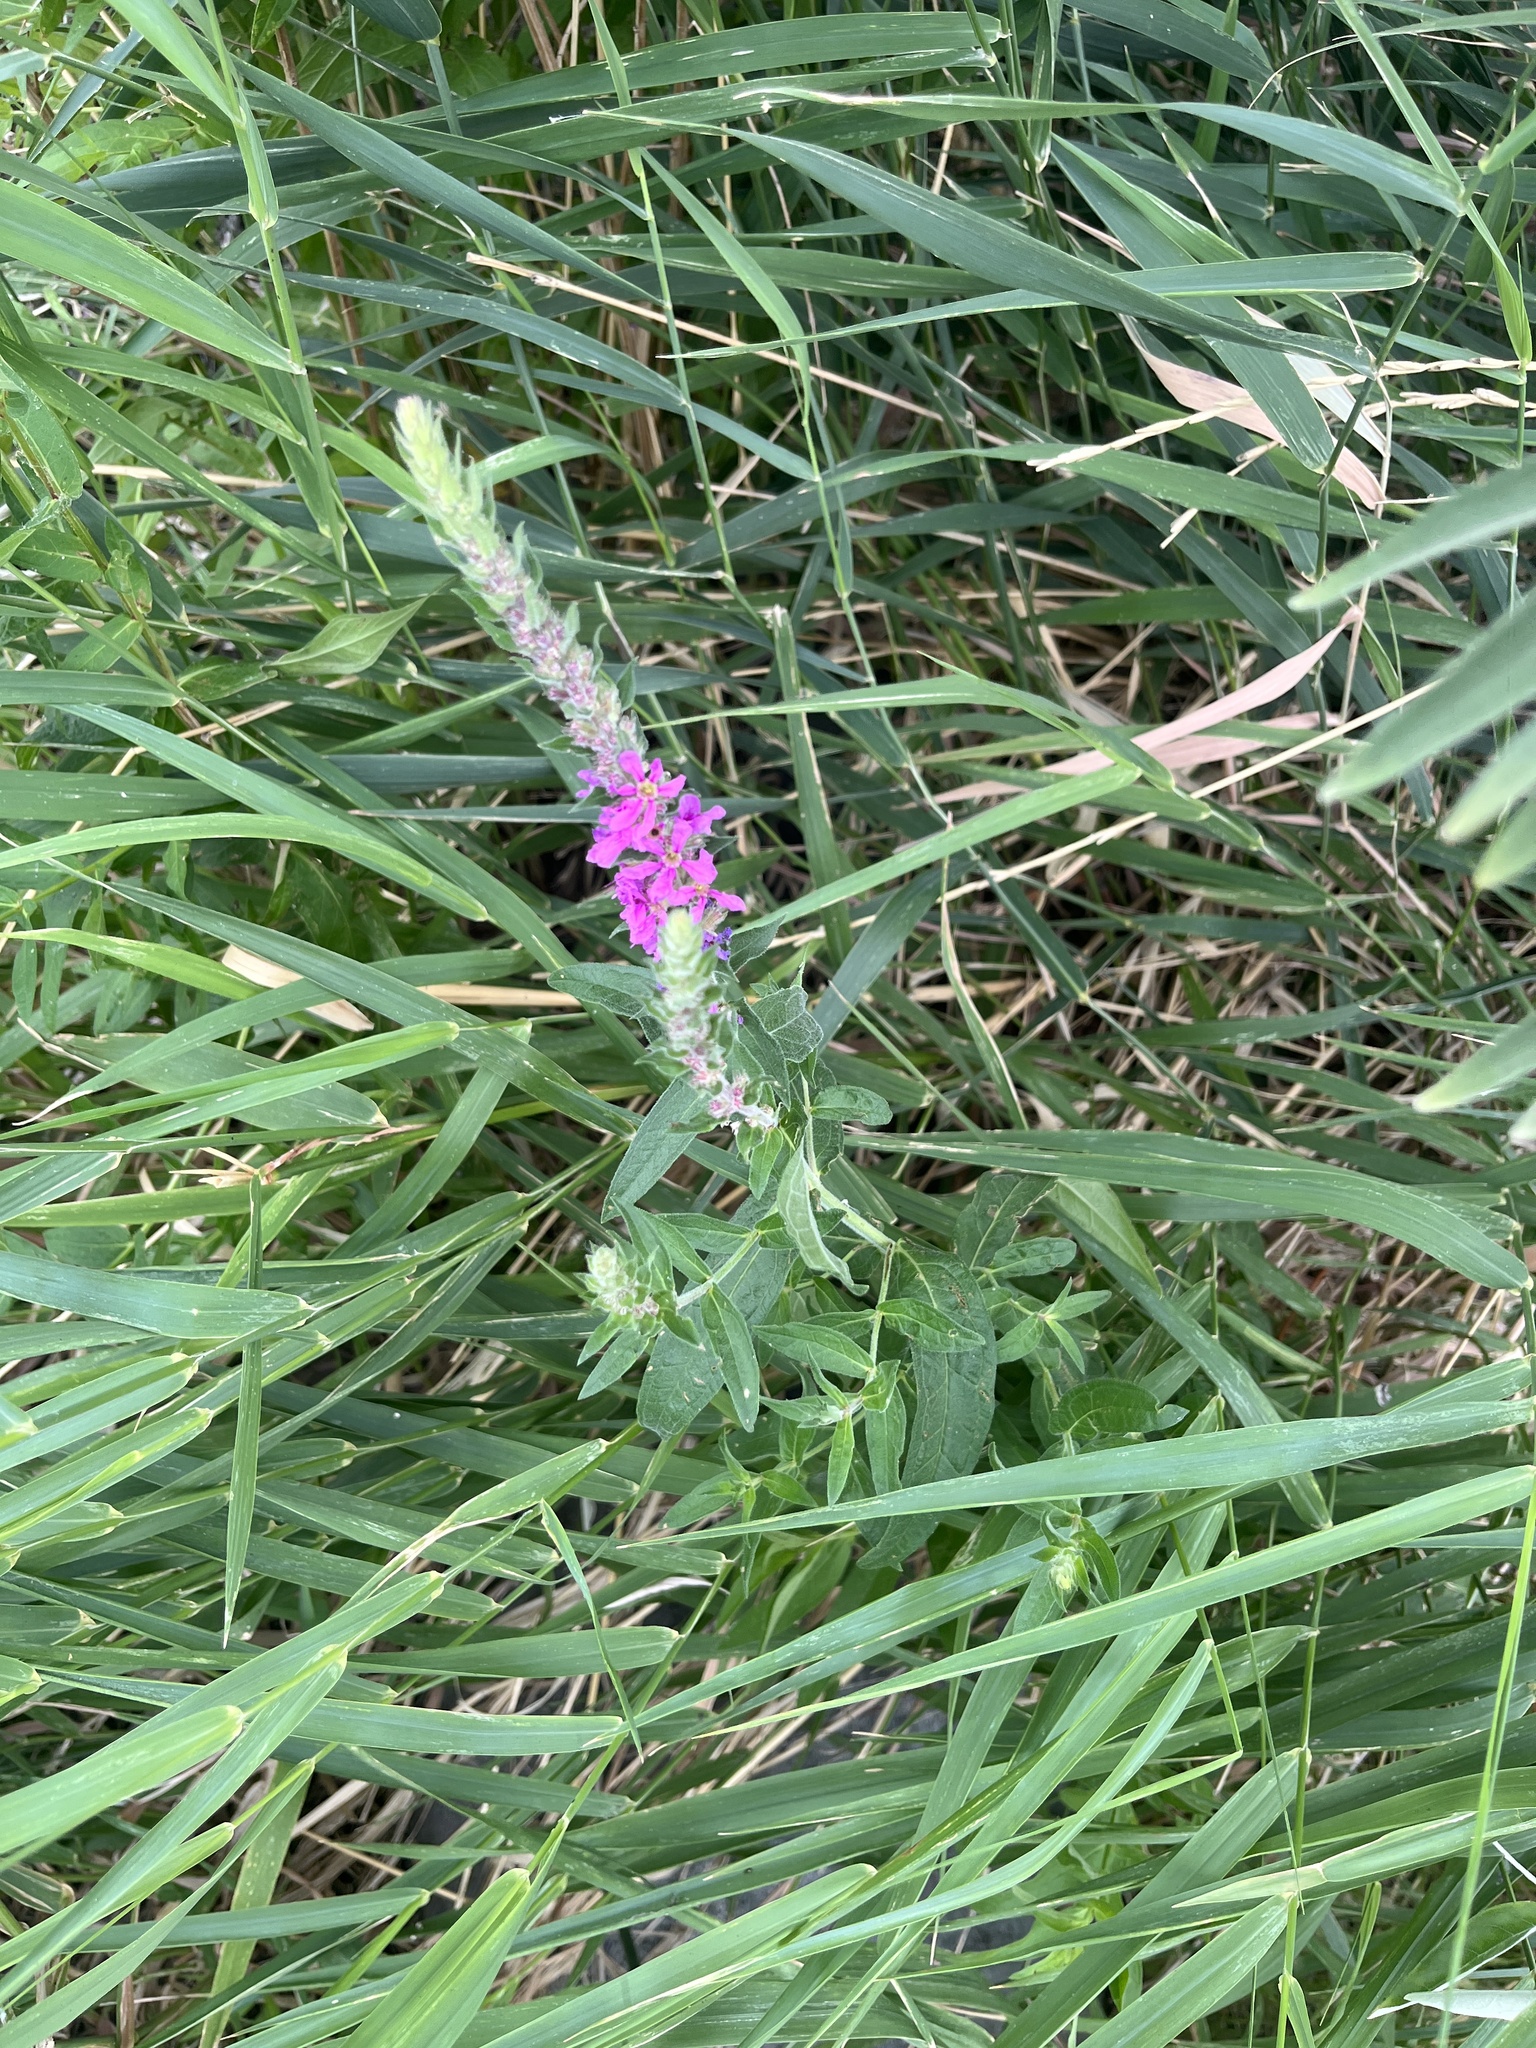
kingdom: Plantae
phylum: Tracheophyta
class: Magnoliopsida
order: Myrtales
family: Lythraceae
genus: Lythrum
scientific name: Lythrum salicaria
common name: Purple loosestrife
